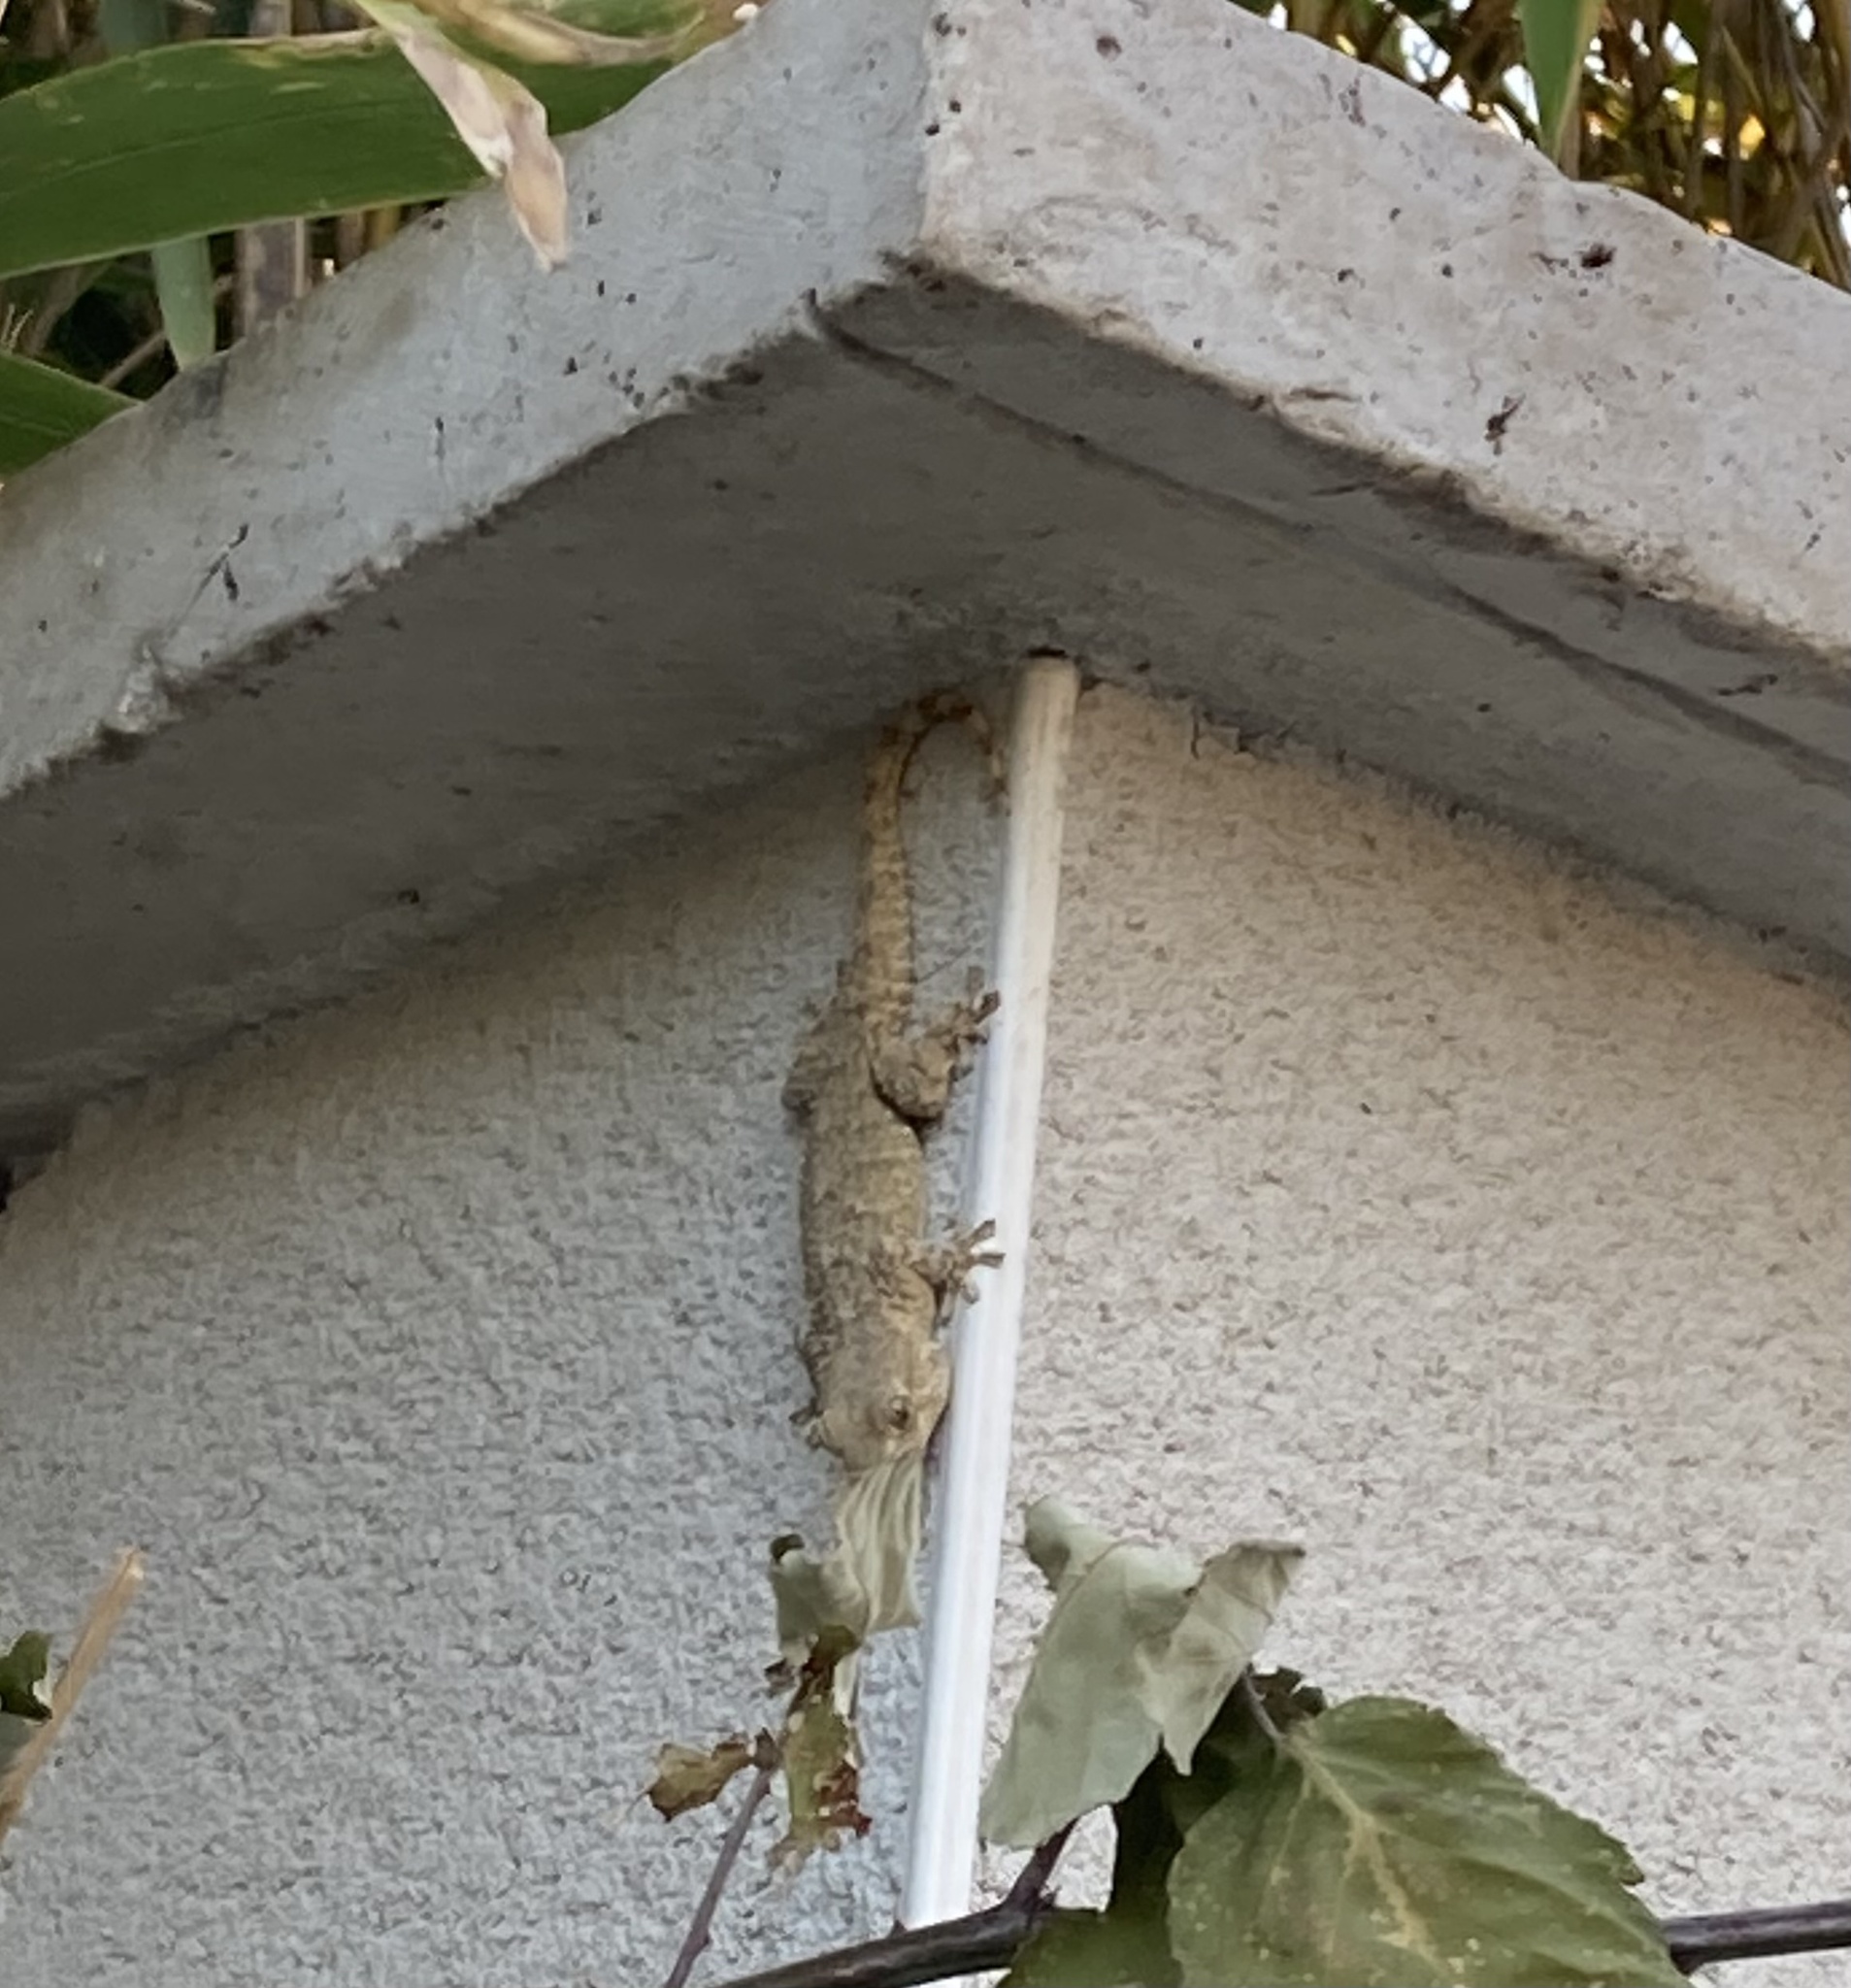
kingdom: Animalia
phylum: Chordata
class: Squamata
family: Phyllodactylidae
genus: Tarentola
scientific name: Tarentola mauritanica
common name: Moorish gecko
